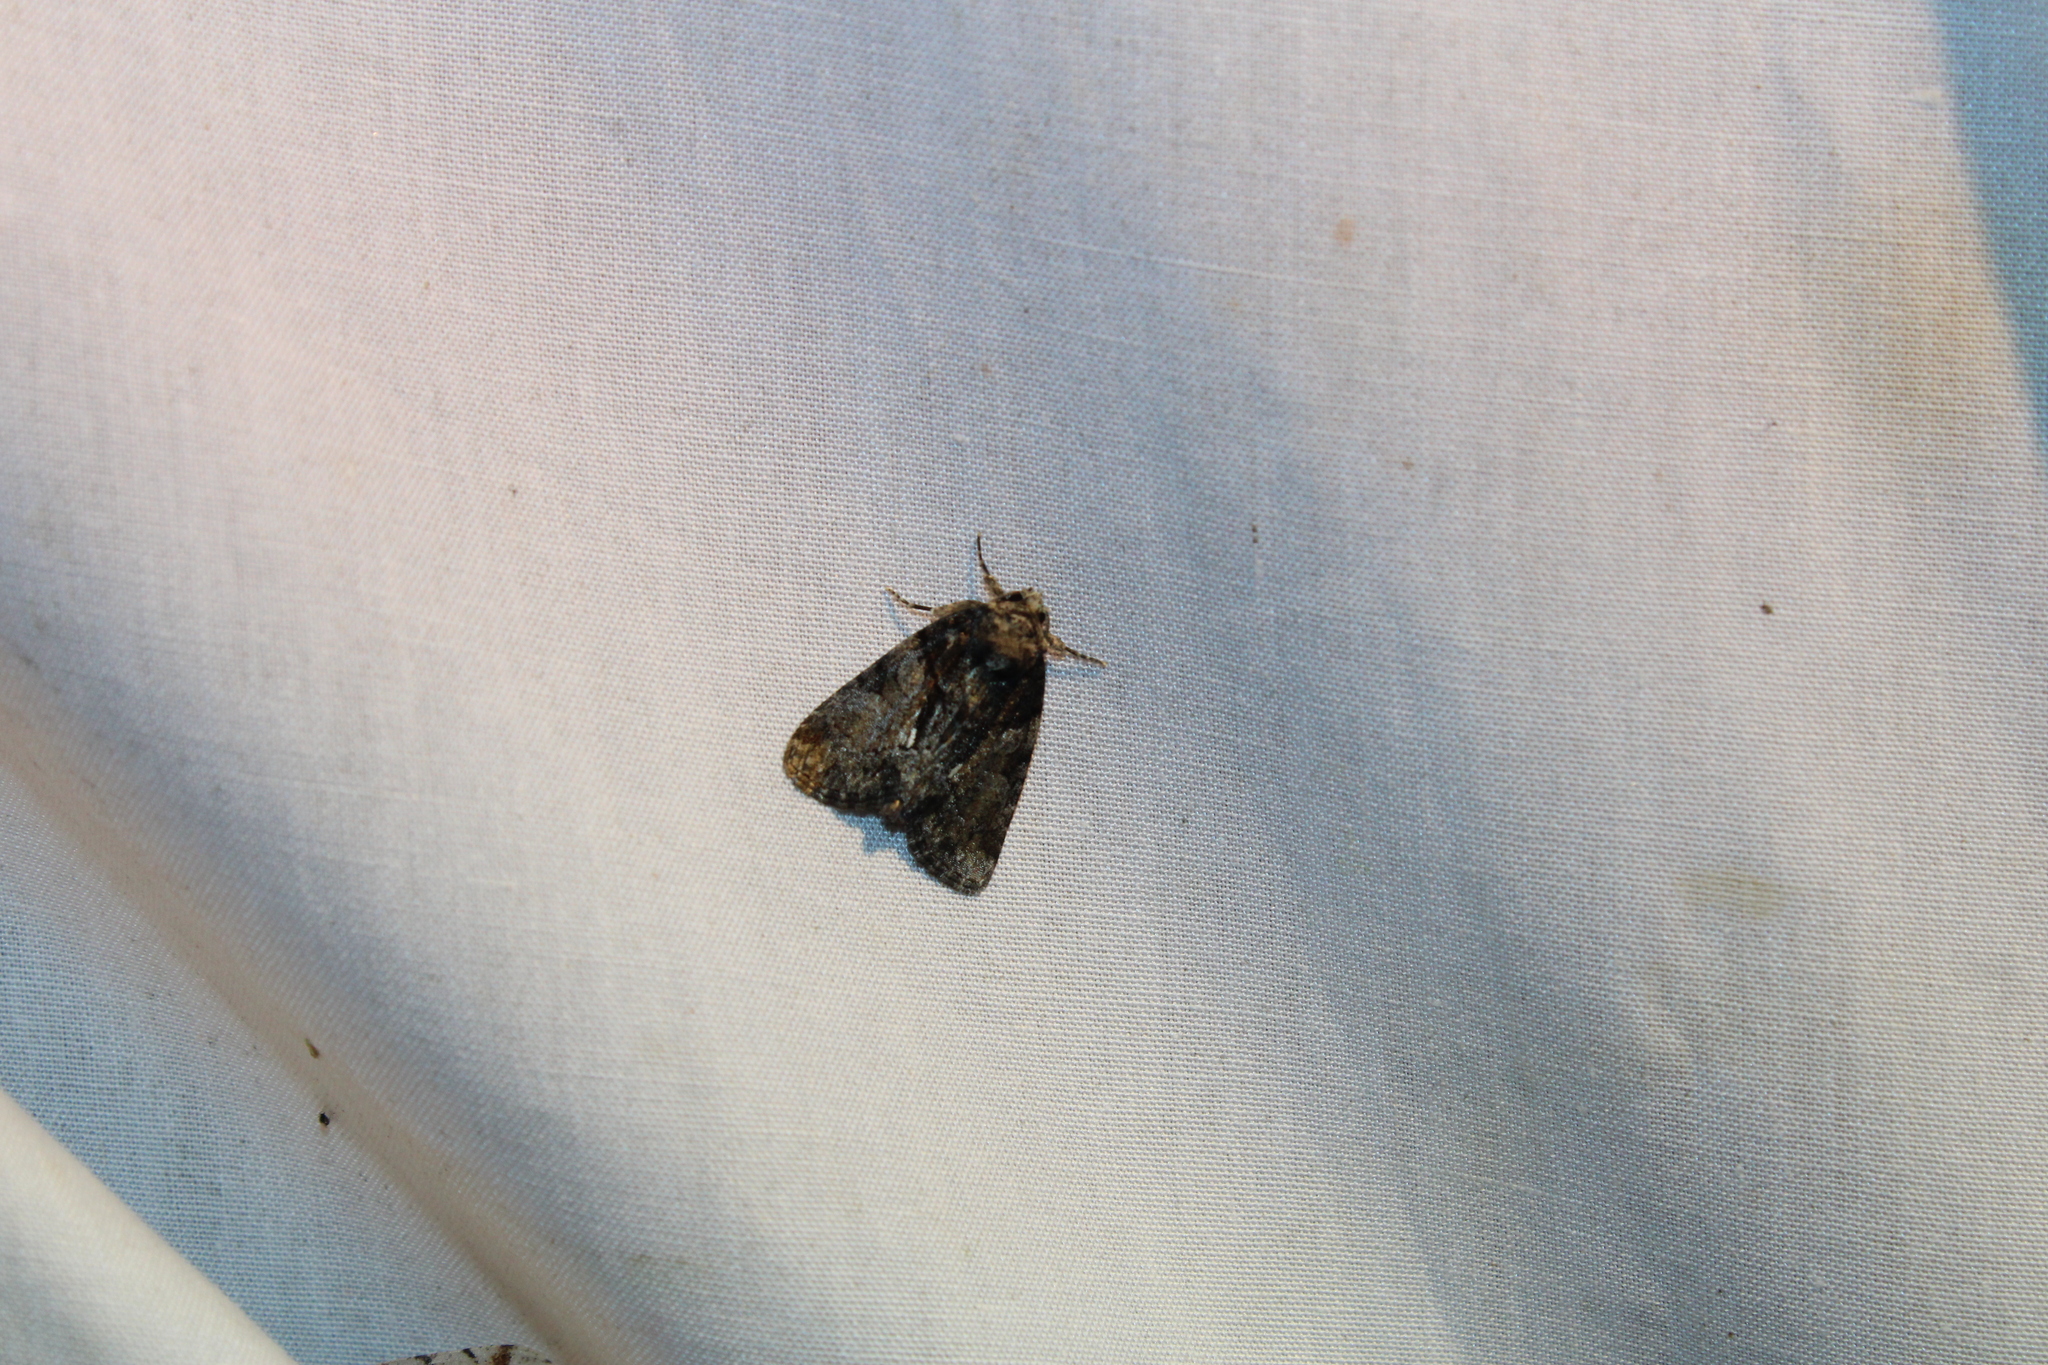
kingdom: Animalia
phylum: Arthropoda
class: Insecta
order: Lepidoptera
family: Noctuidae
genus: Chytonix
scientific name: Chytonix palliatricula
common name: Cloaked marvel
